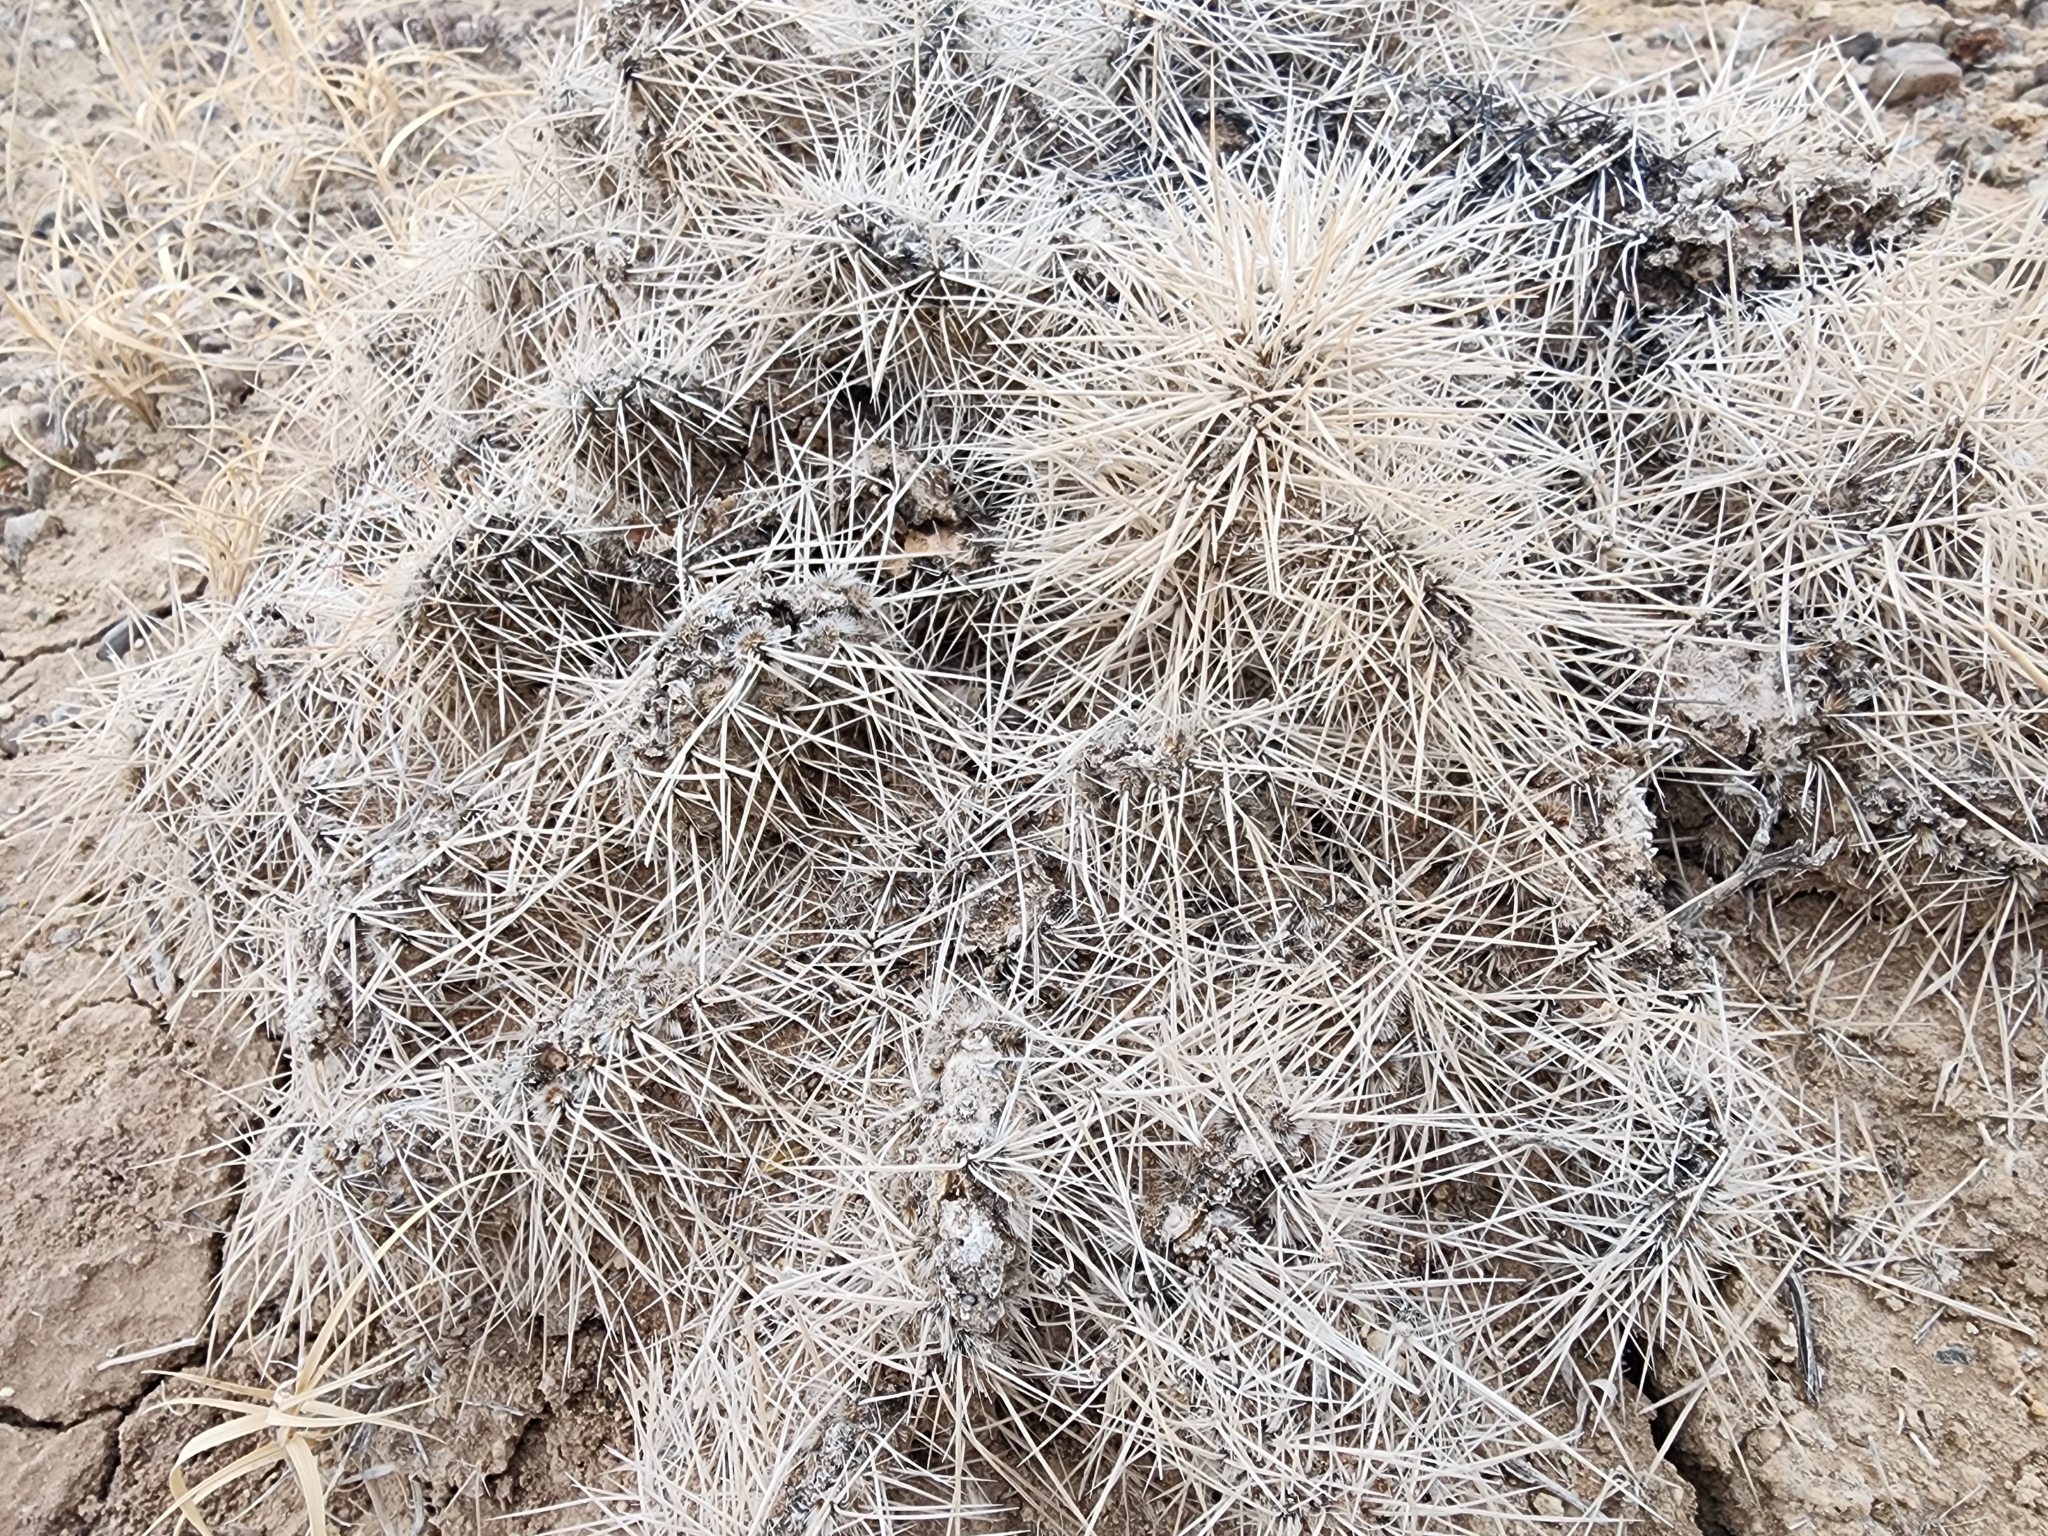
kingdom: Plantae
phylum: Tracheophyta
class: Magnoliopsida
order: Caryophyllales
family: Cactaceae
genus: Opuntia
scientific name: Opuntia polyacantha
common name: Plains prickly-pear
